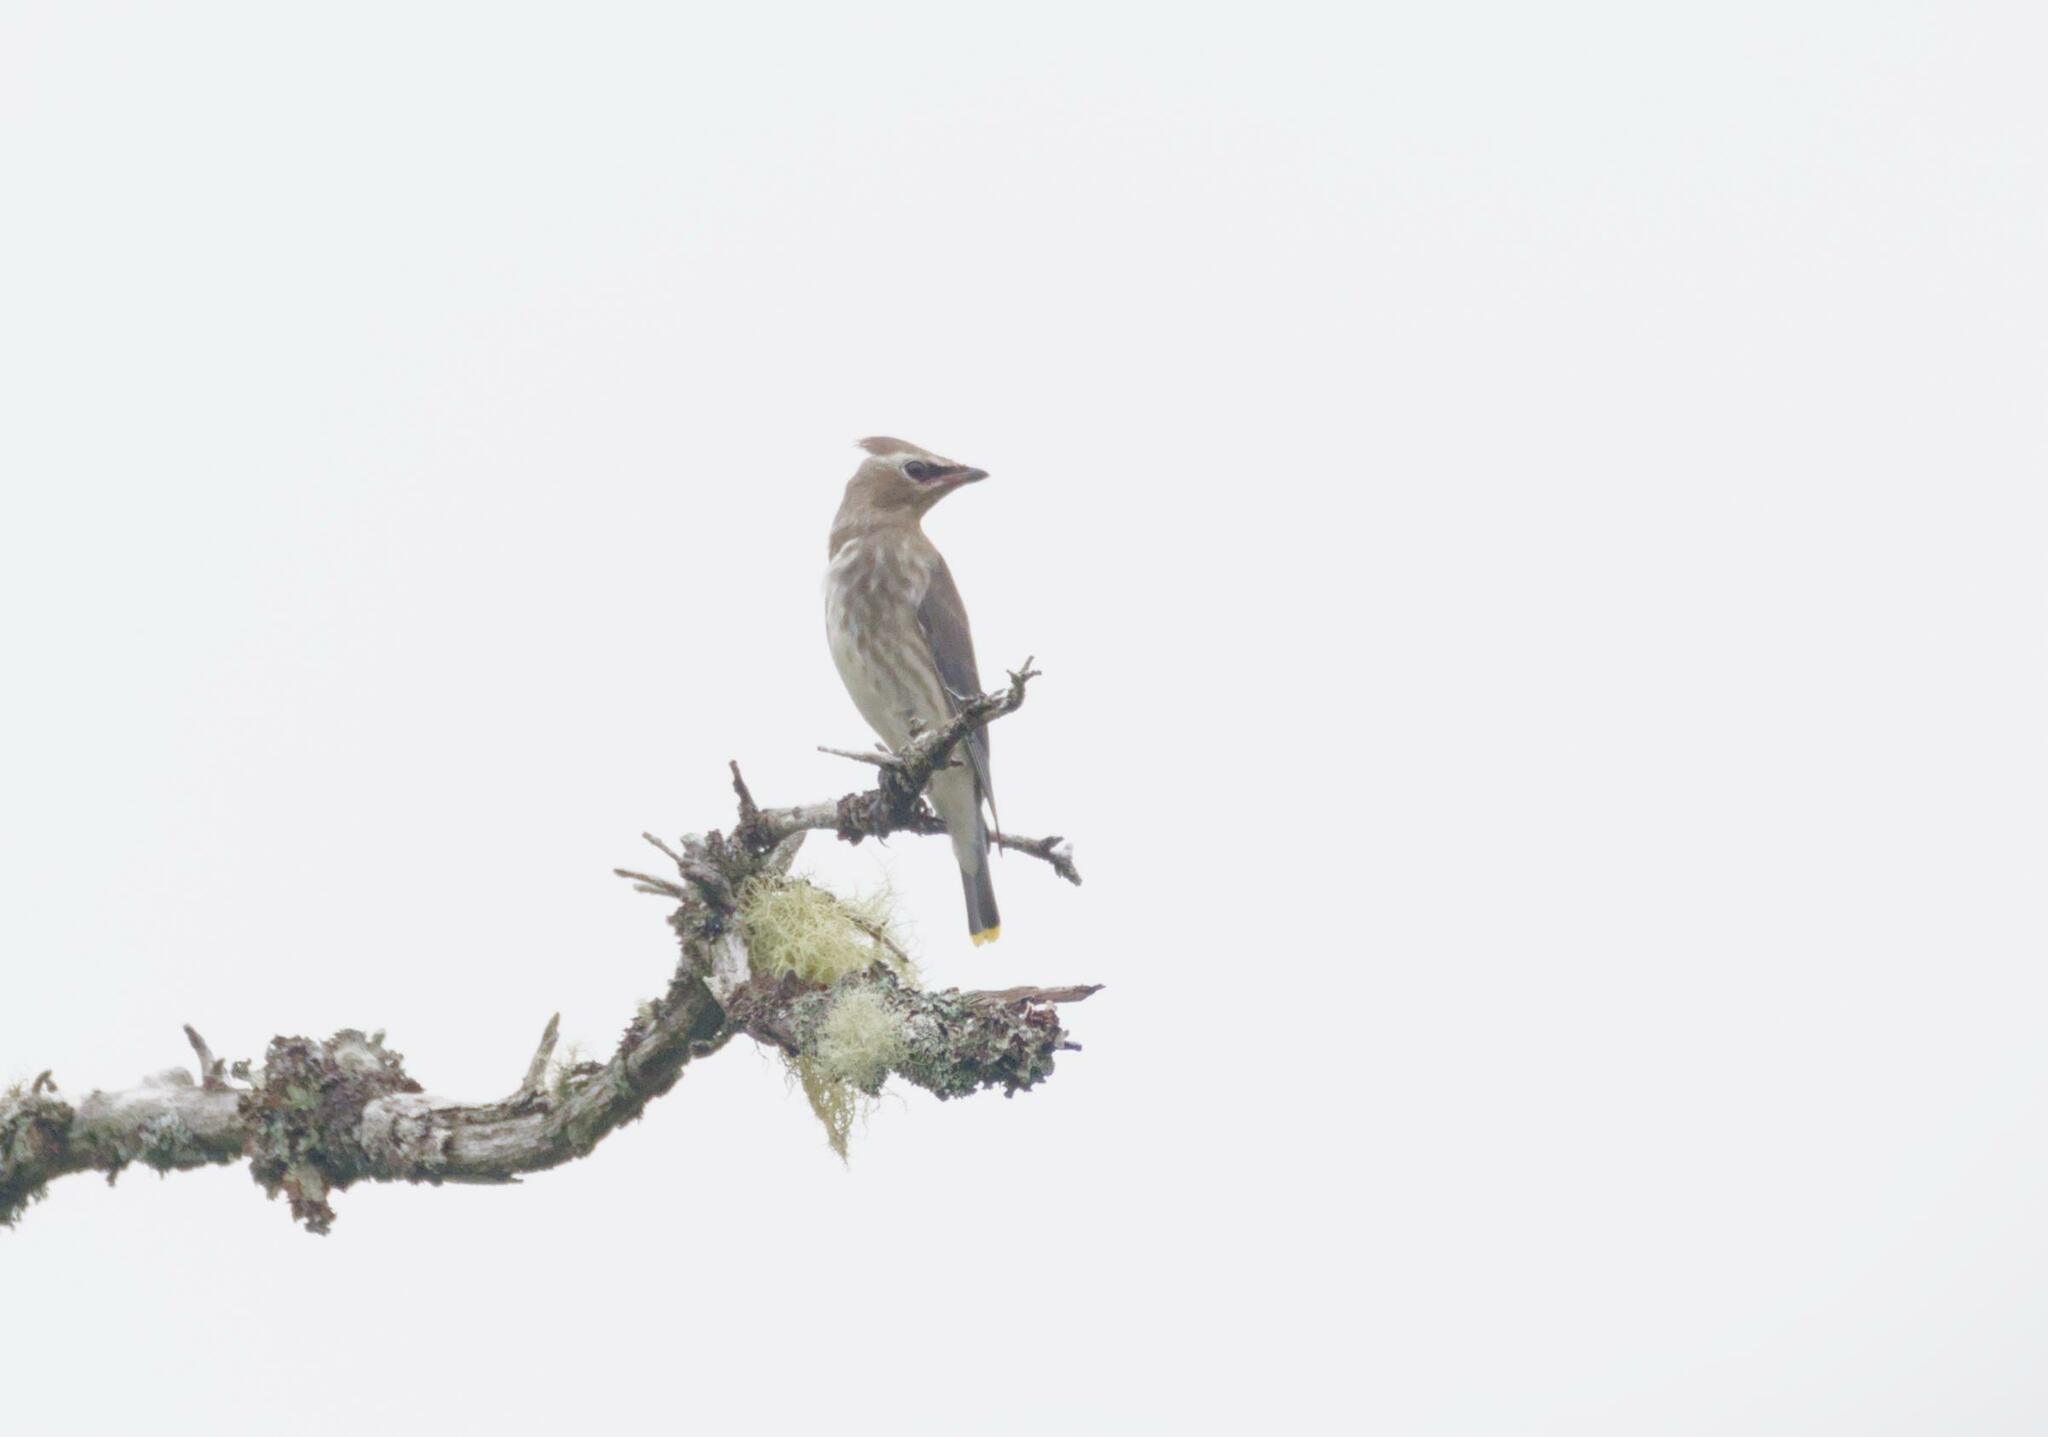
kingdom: Animalia
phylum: Chordata
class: Aves
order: Passeriformes
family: Bombycillidae
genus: Bombycilla
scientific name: Bombycilla cedrorum
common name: Cedar waxwing
